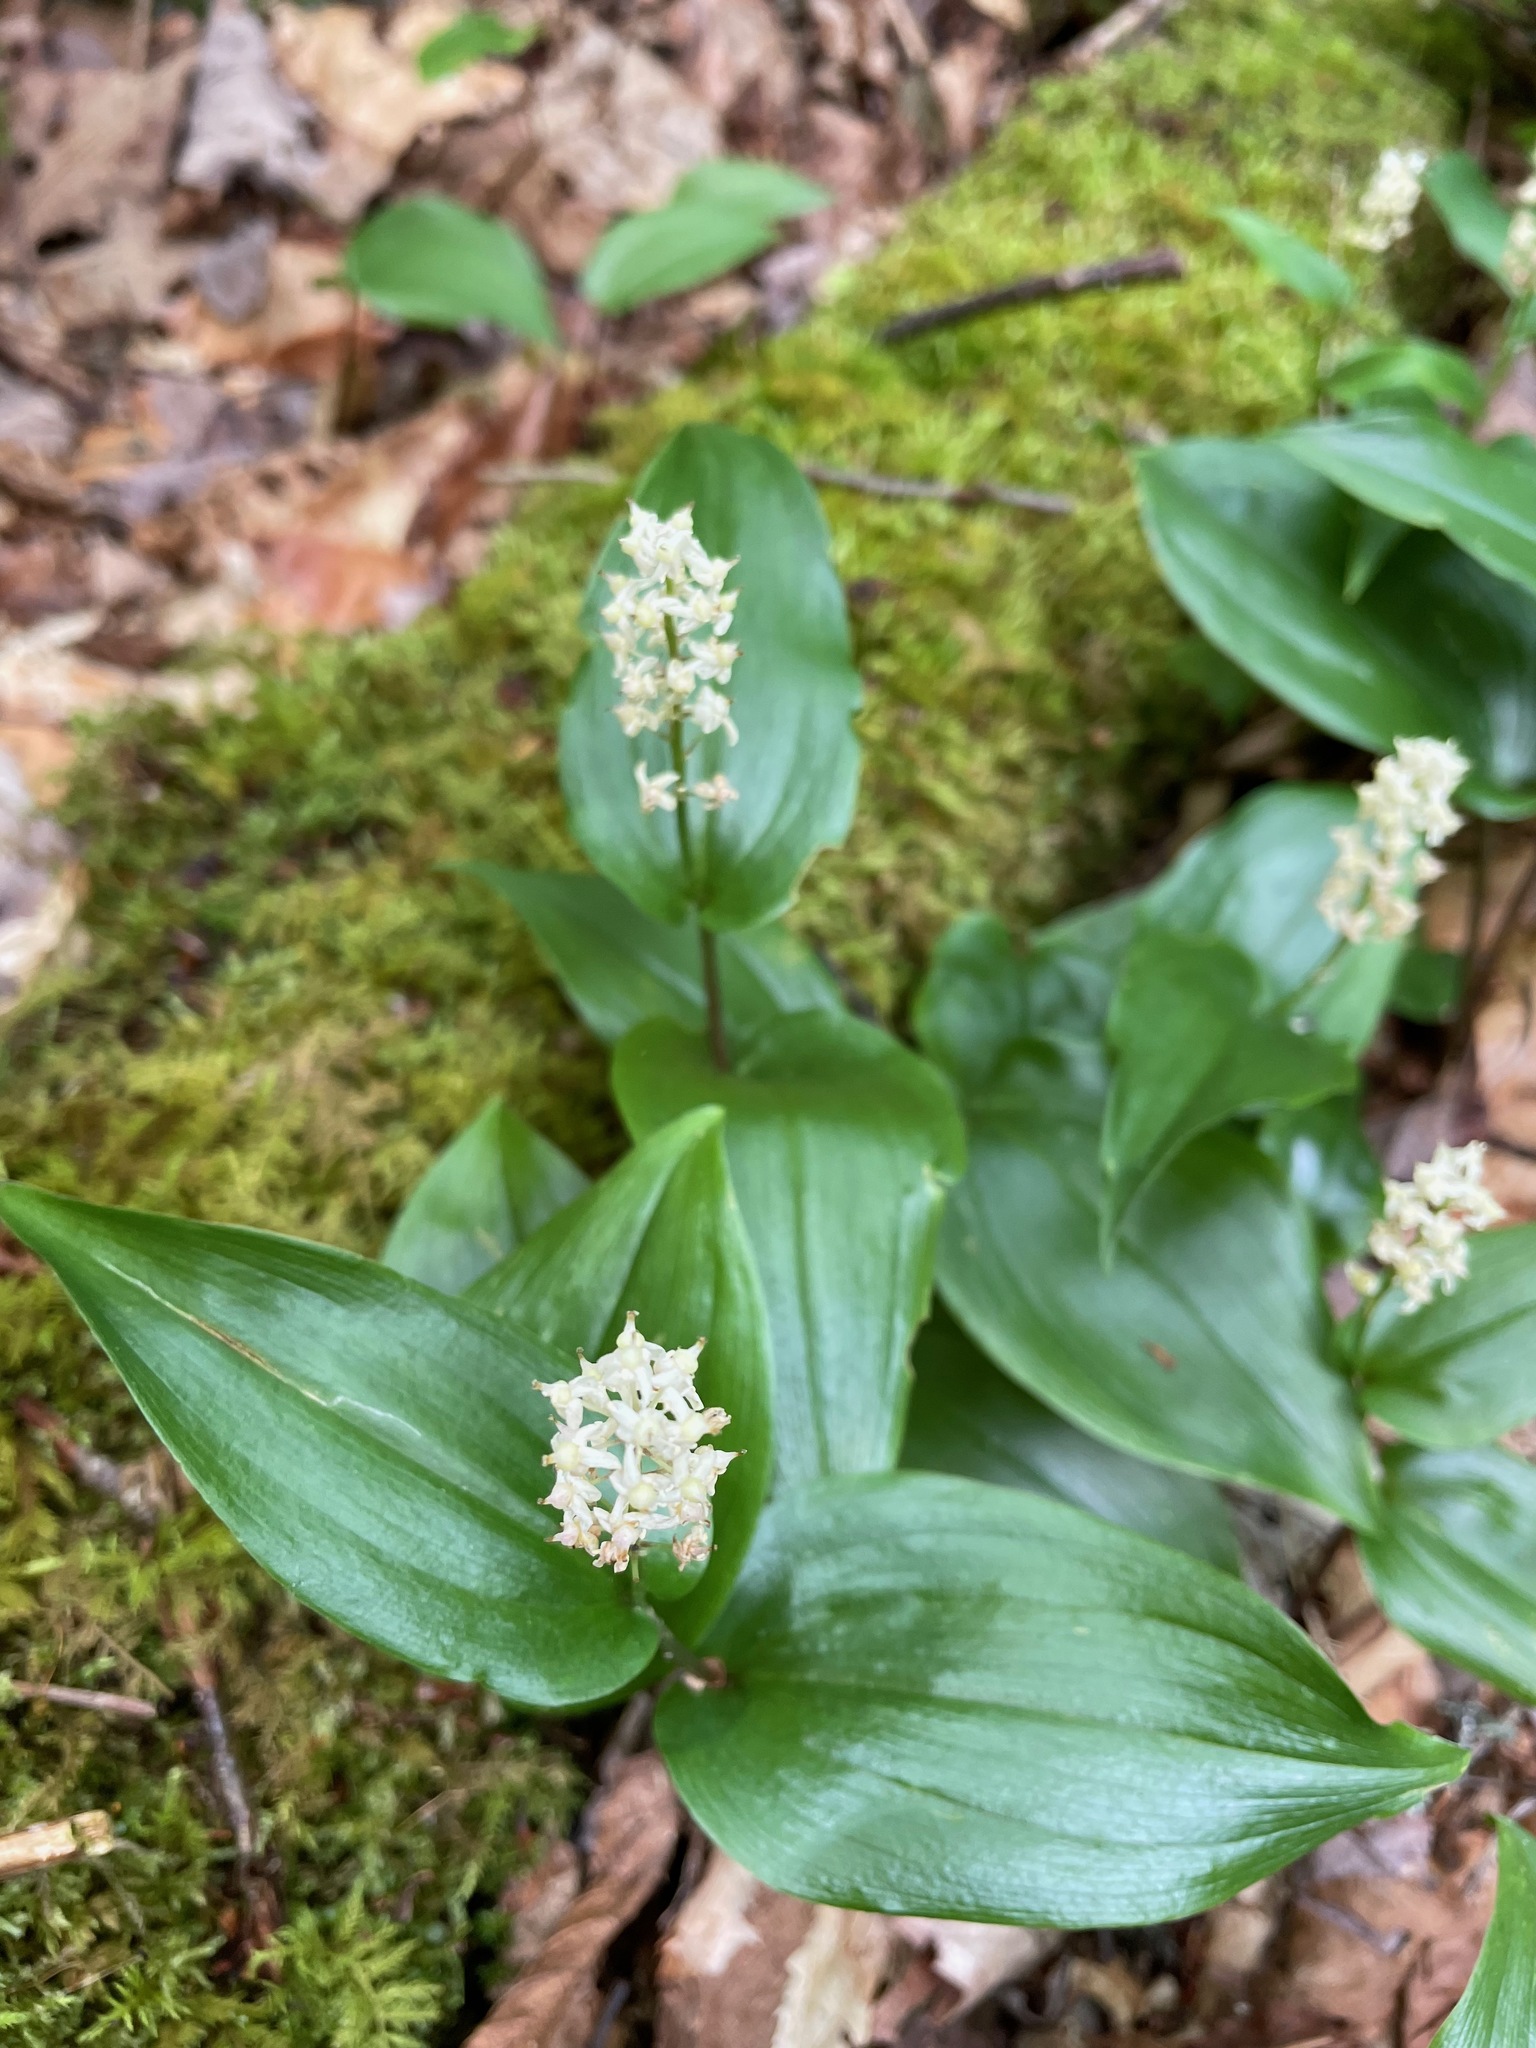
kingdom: Plantae
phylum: Tracheophyta
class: Liliopsida
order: Asparagales
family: Asparagaceae
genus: Maianthemum
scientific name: Maianthemum canadense
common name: False lily-of-the-valley
